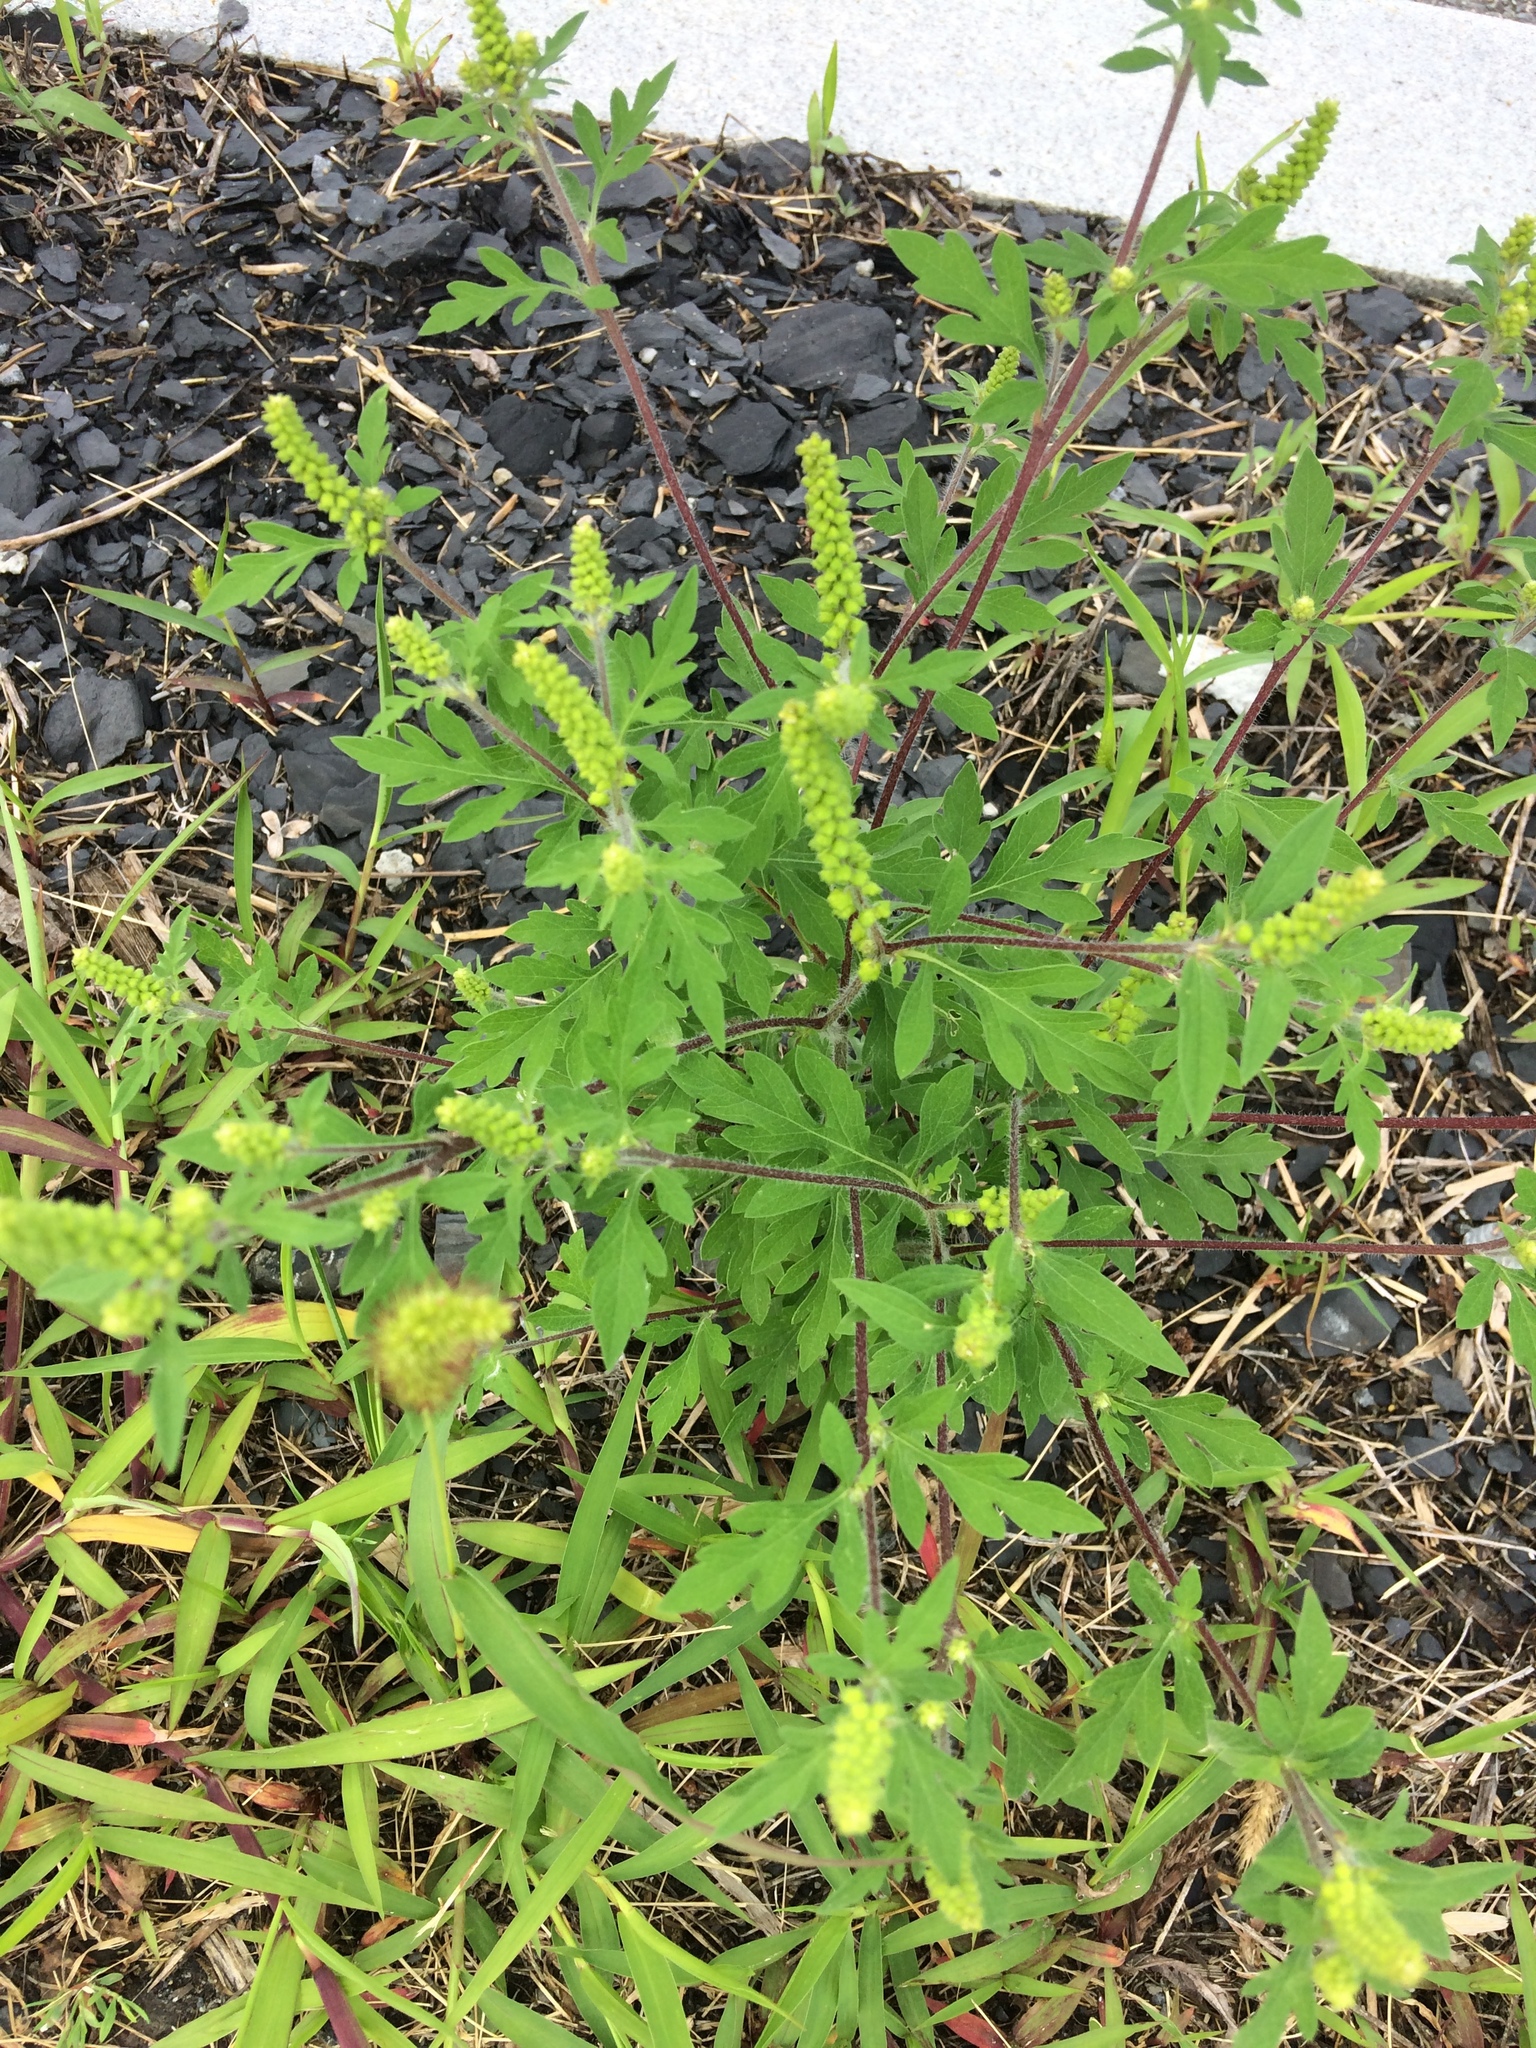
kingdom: Plantae
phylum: Tracheophyta
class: Magnoliopsida
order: Asterales
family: Asteraceae
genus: Ambrosia
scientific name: Ambrosia artemisiifolia
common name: Annual ragweed
